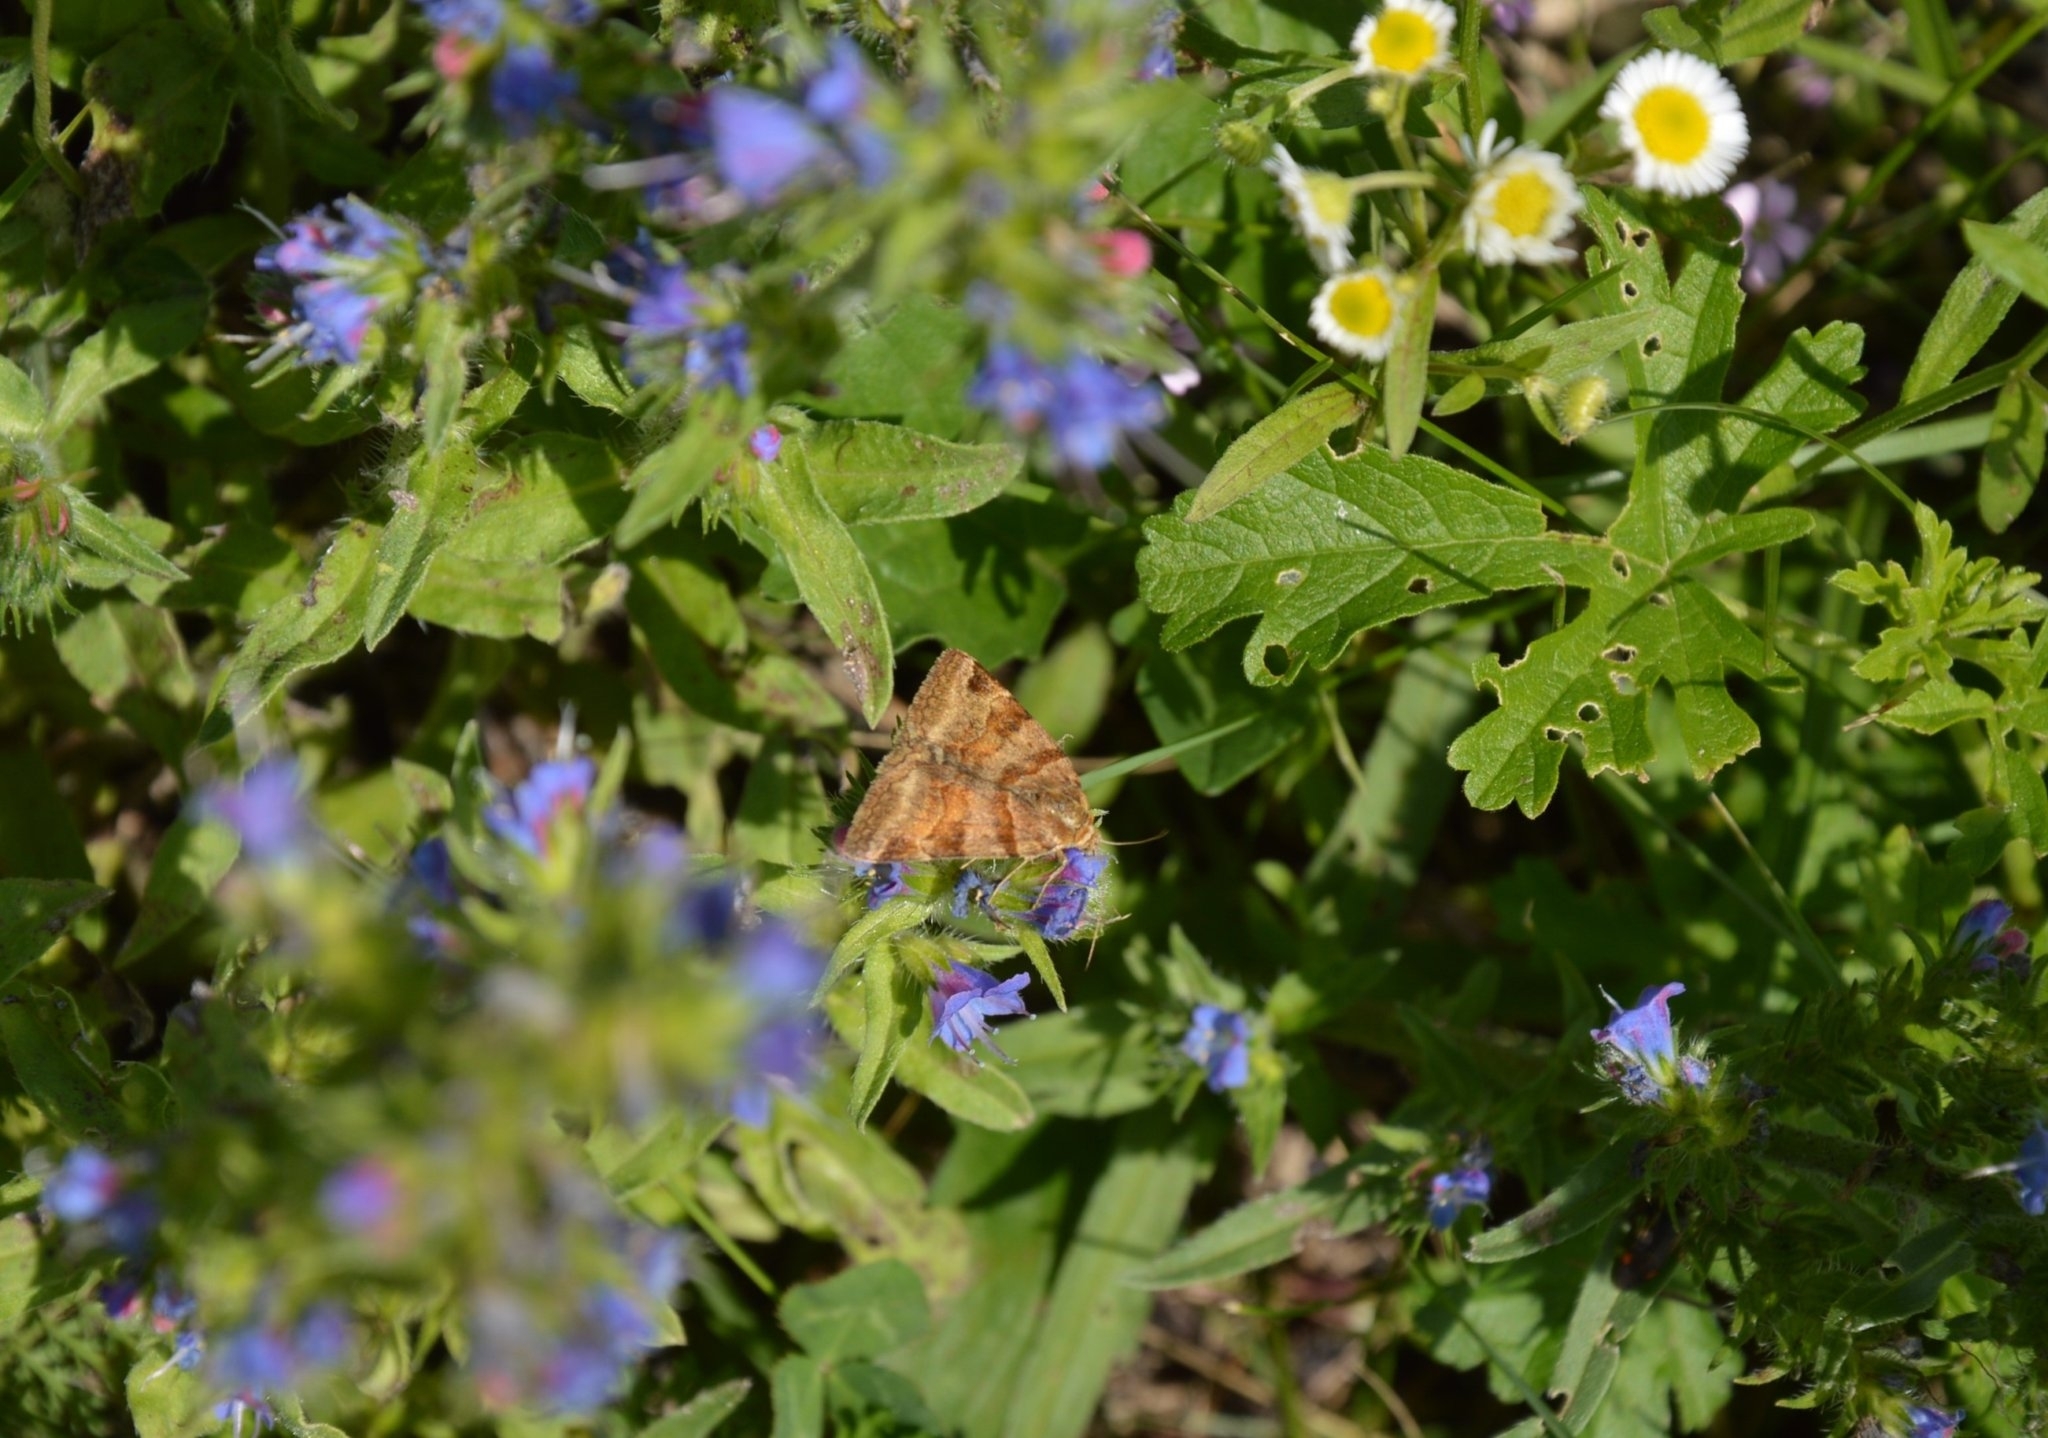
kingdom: Animalia
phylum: Arthropoda
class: Insecta
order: Lepidoptera
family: Erebidae
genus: Euclidia
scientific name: Euclidia glyphica
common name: Burnet companion
